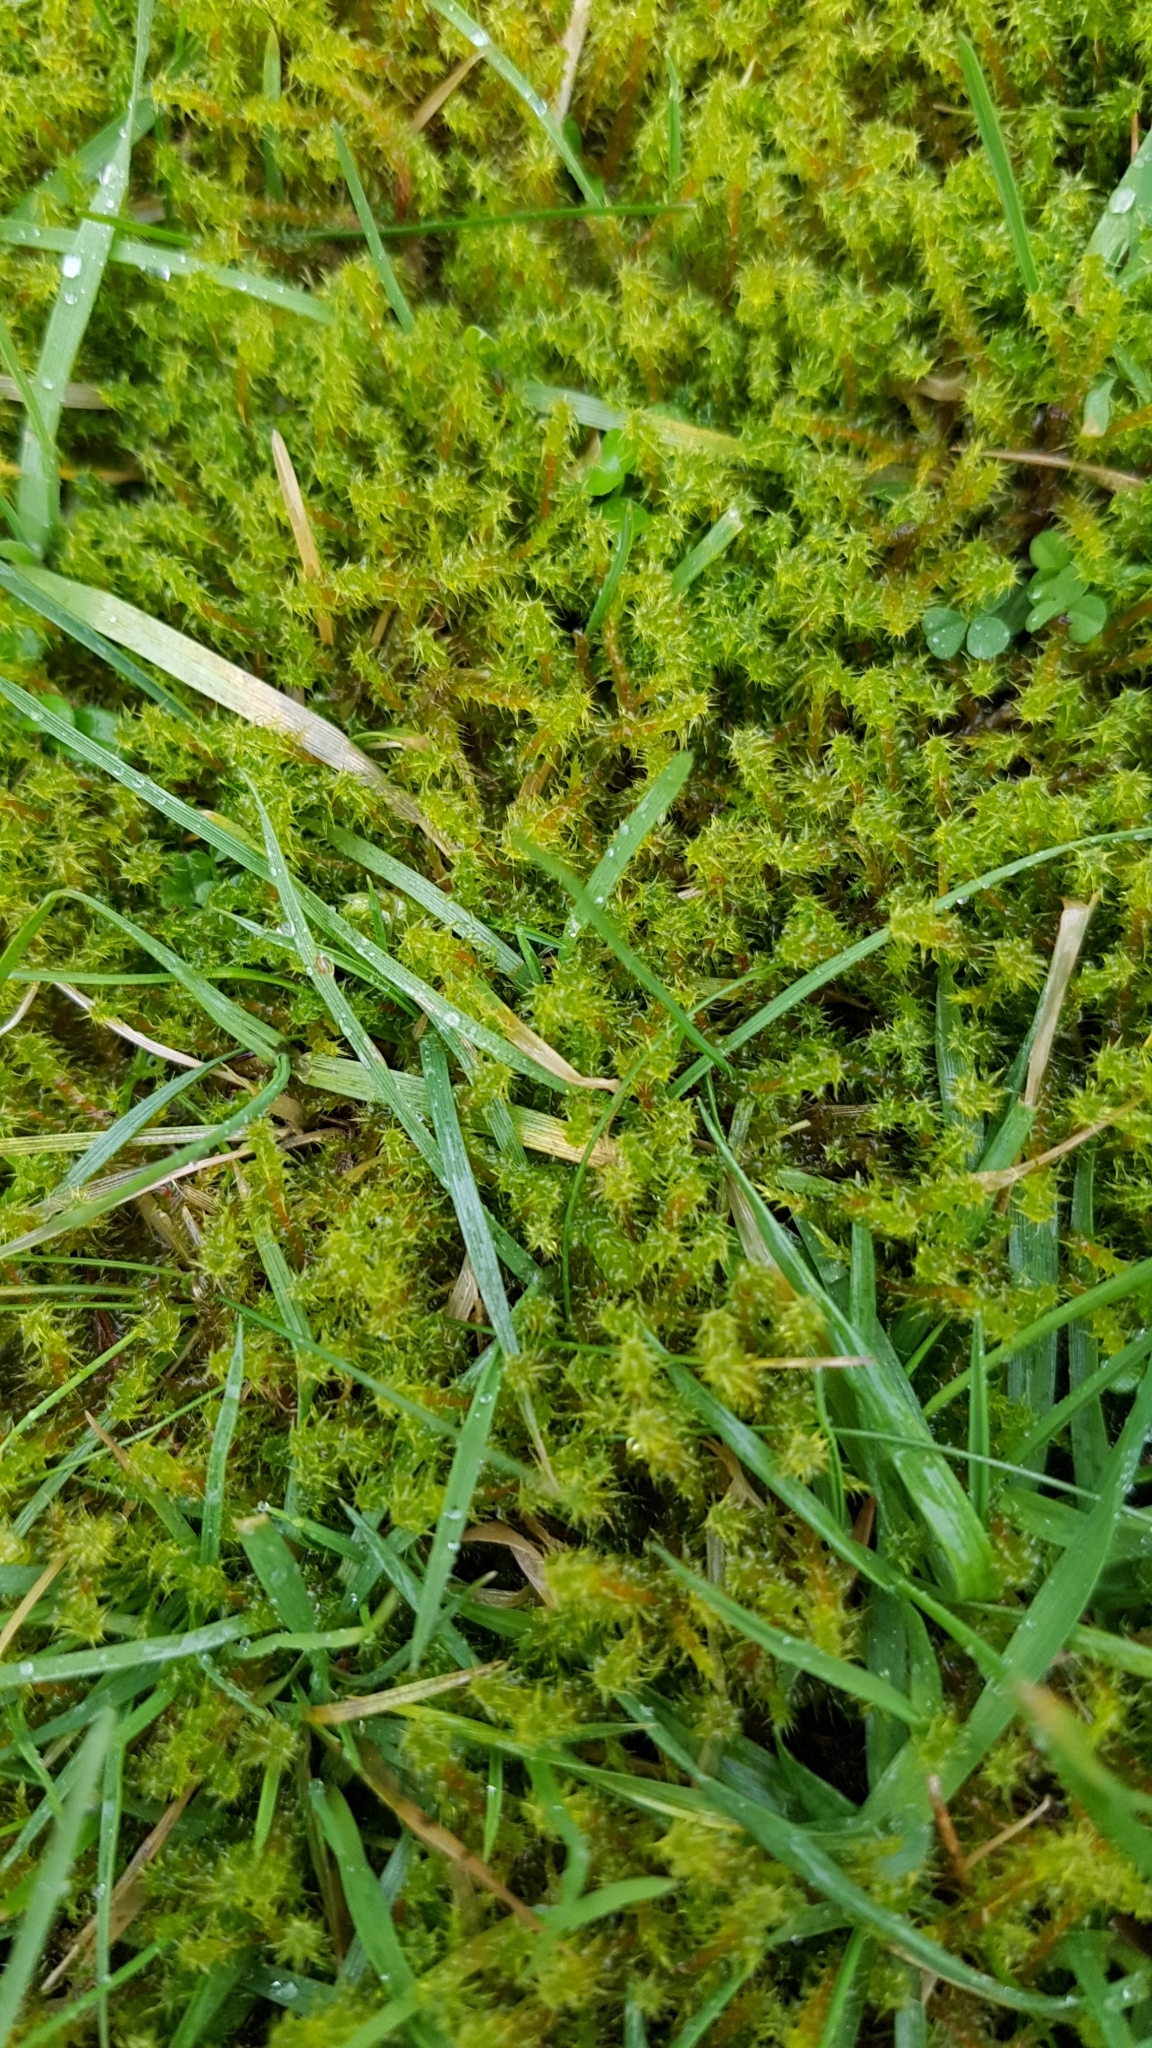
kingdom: Plantae
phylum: Bryophyta
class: Bryopsida
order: Hypnales
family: Hylocomiaceae
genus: Rhytidiadelphus
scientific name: Rhytidiadelphus squarrosus
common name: Springy turf-moss
